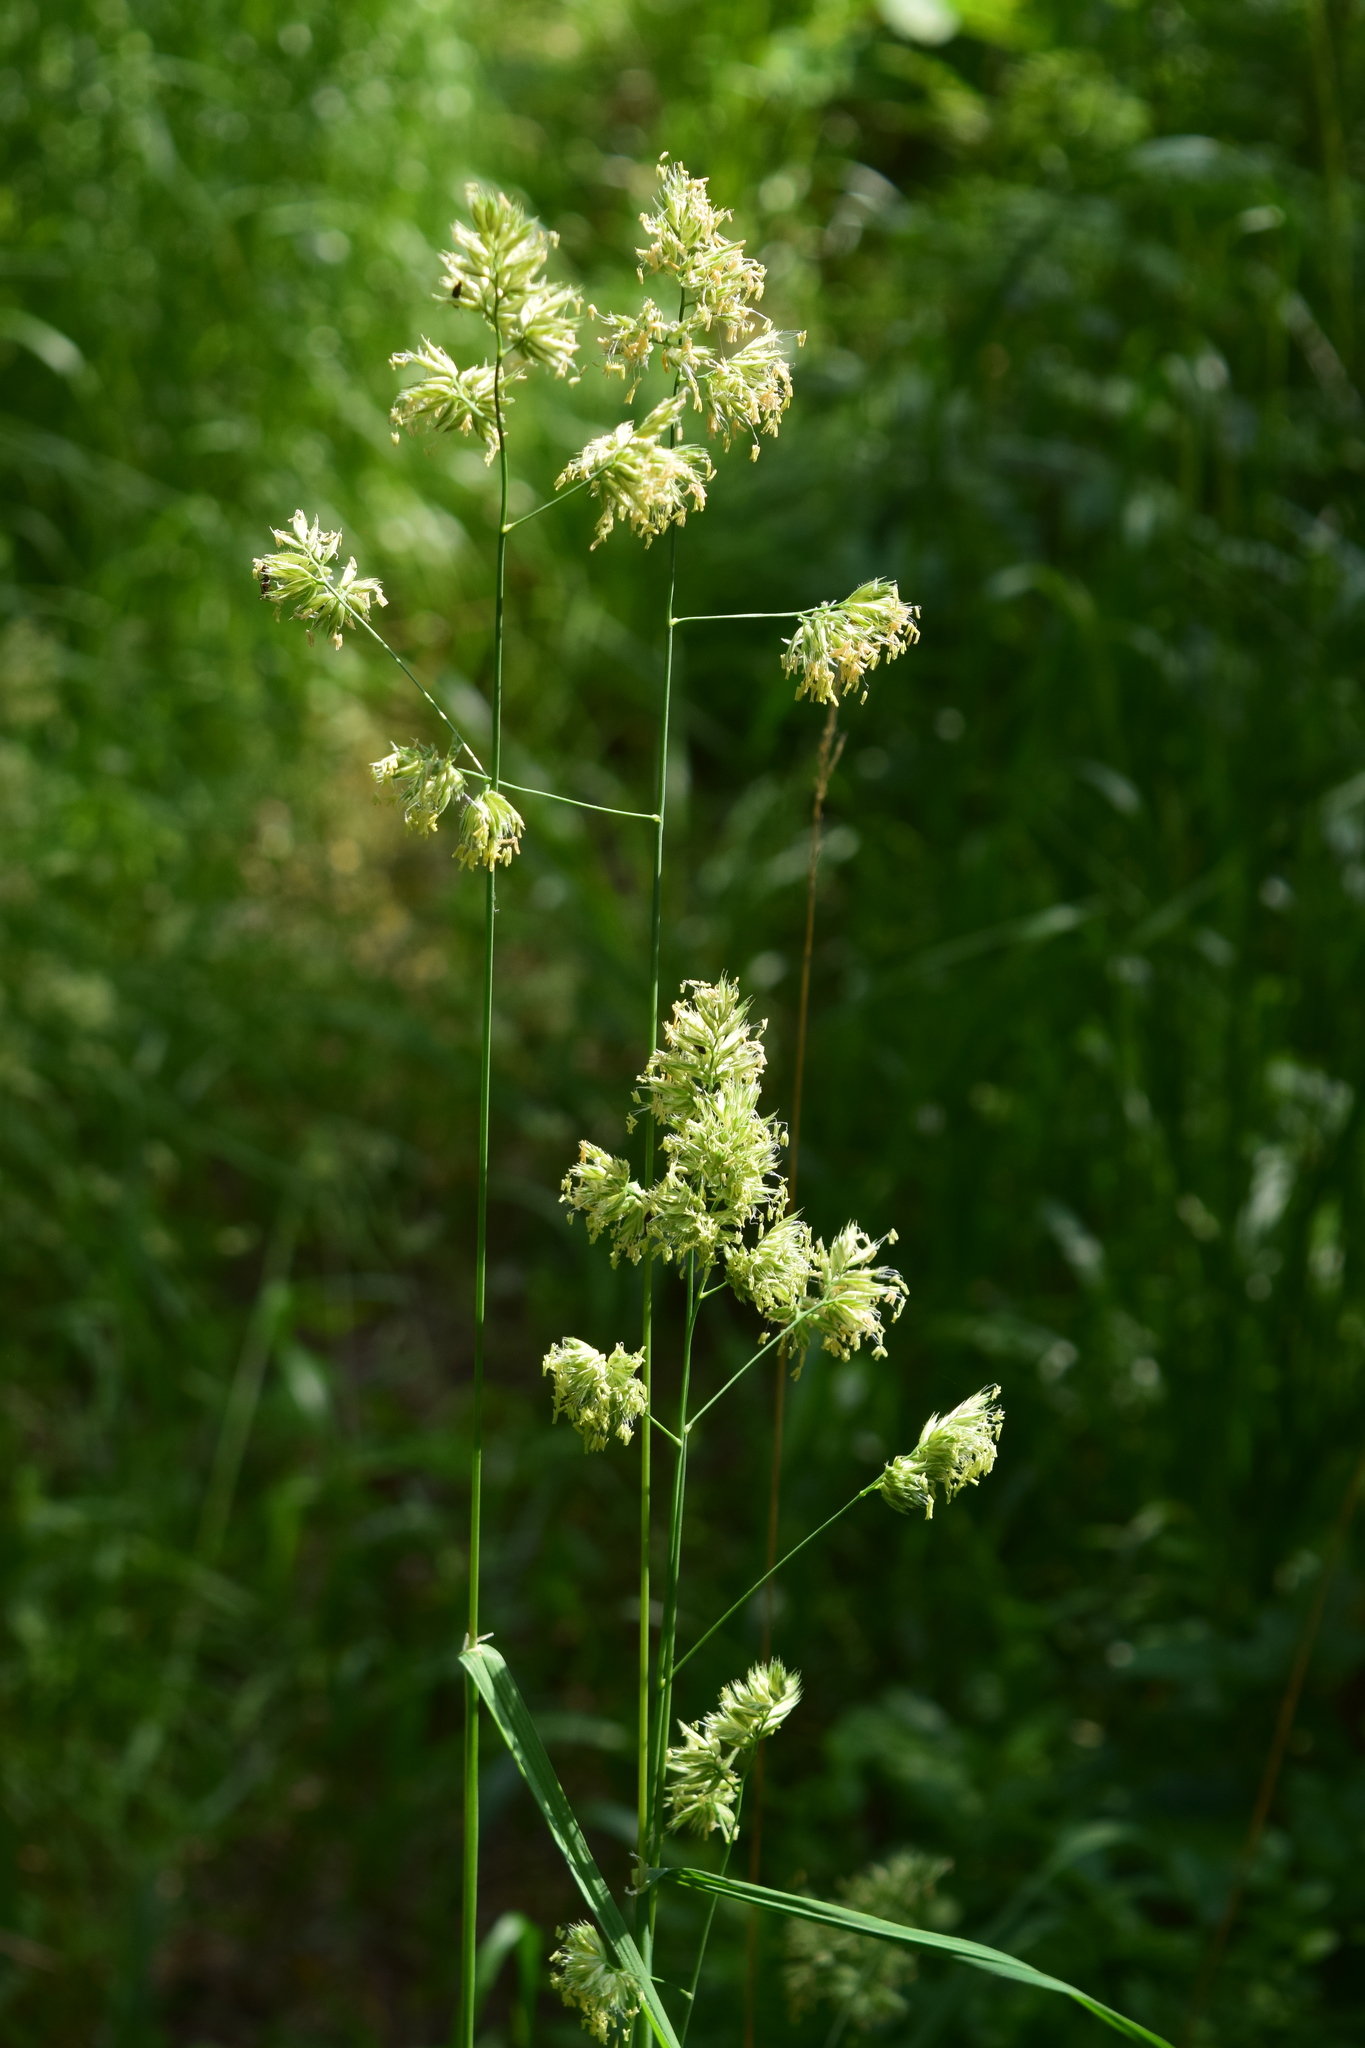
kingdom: Plantae
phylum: Tracheophyta
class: Liliopsida
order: Poales
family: Poaceae
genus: Dactylis
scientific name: Dactylis glomerata
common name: Orchardgrass
